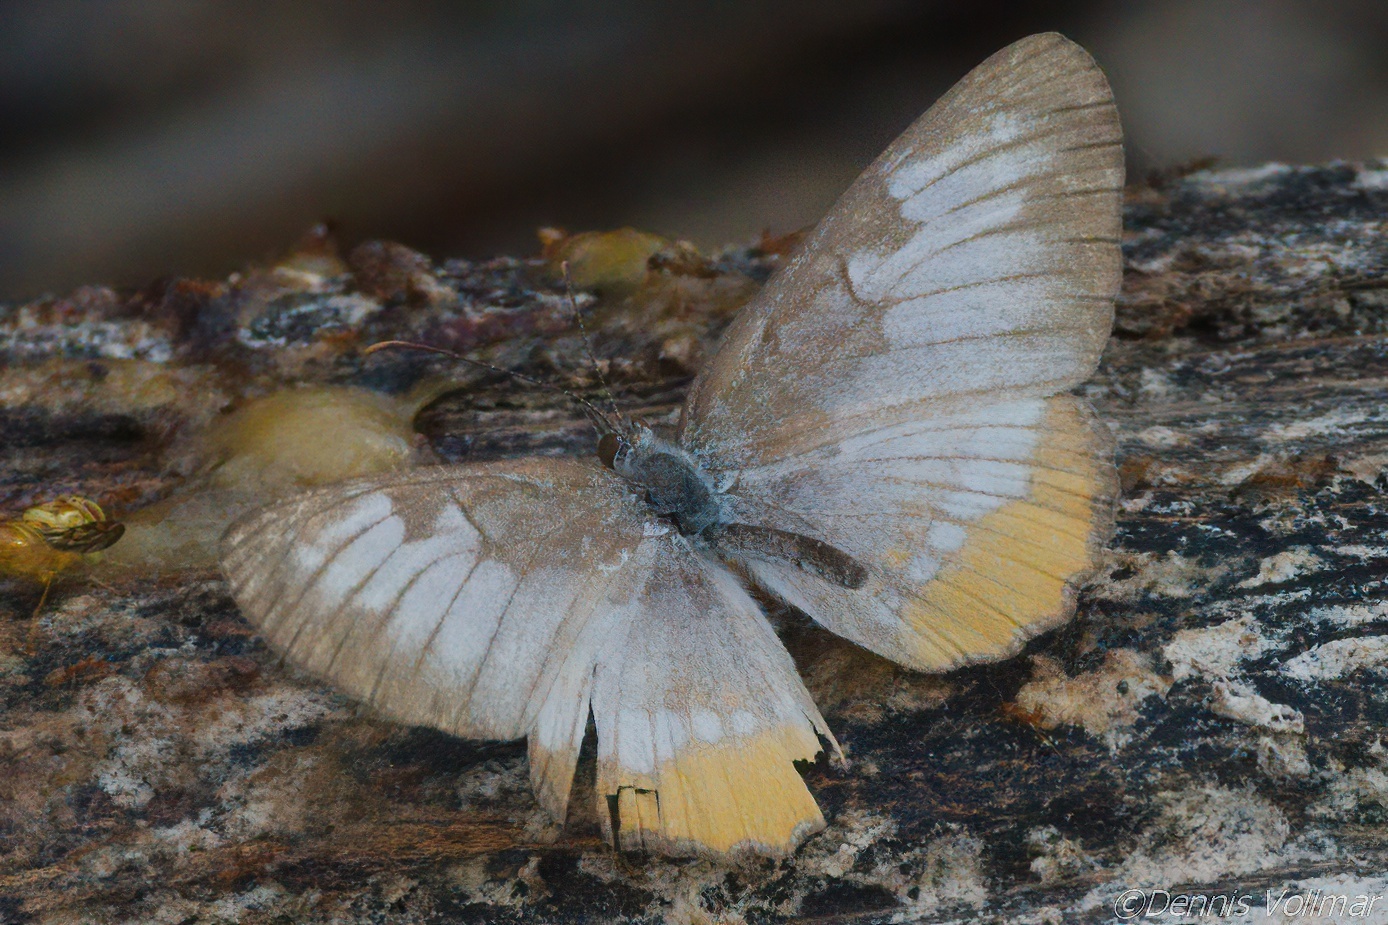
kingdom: Animalia
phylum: Arthropoda
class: Insecta
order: Lepidoptera
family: Nymphalidae
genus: Mestra
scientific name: Mestra amymone
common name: Common mestra
